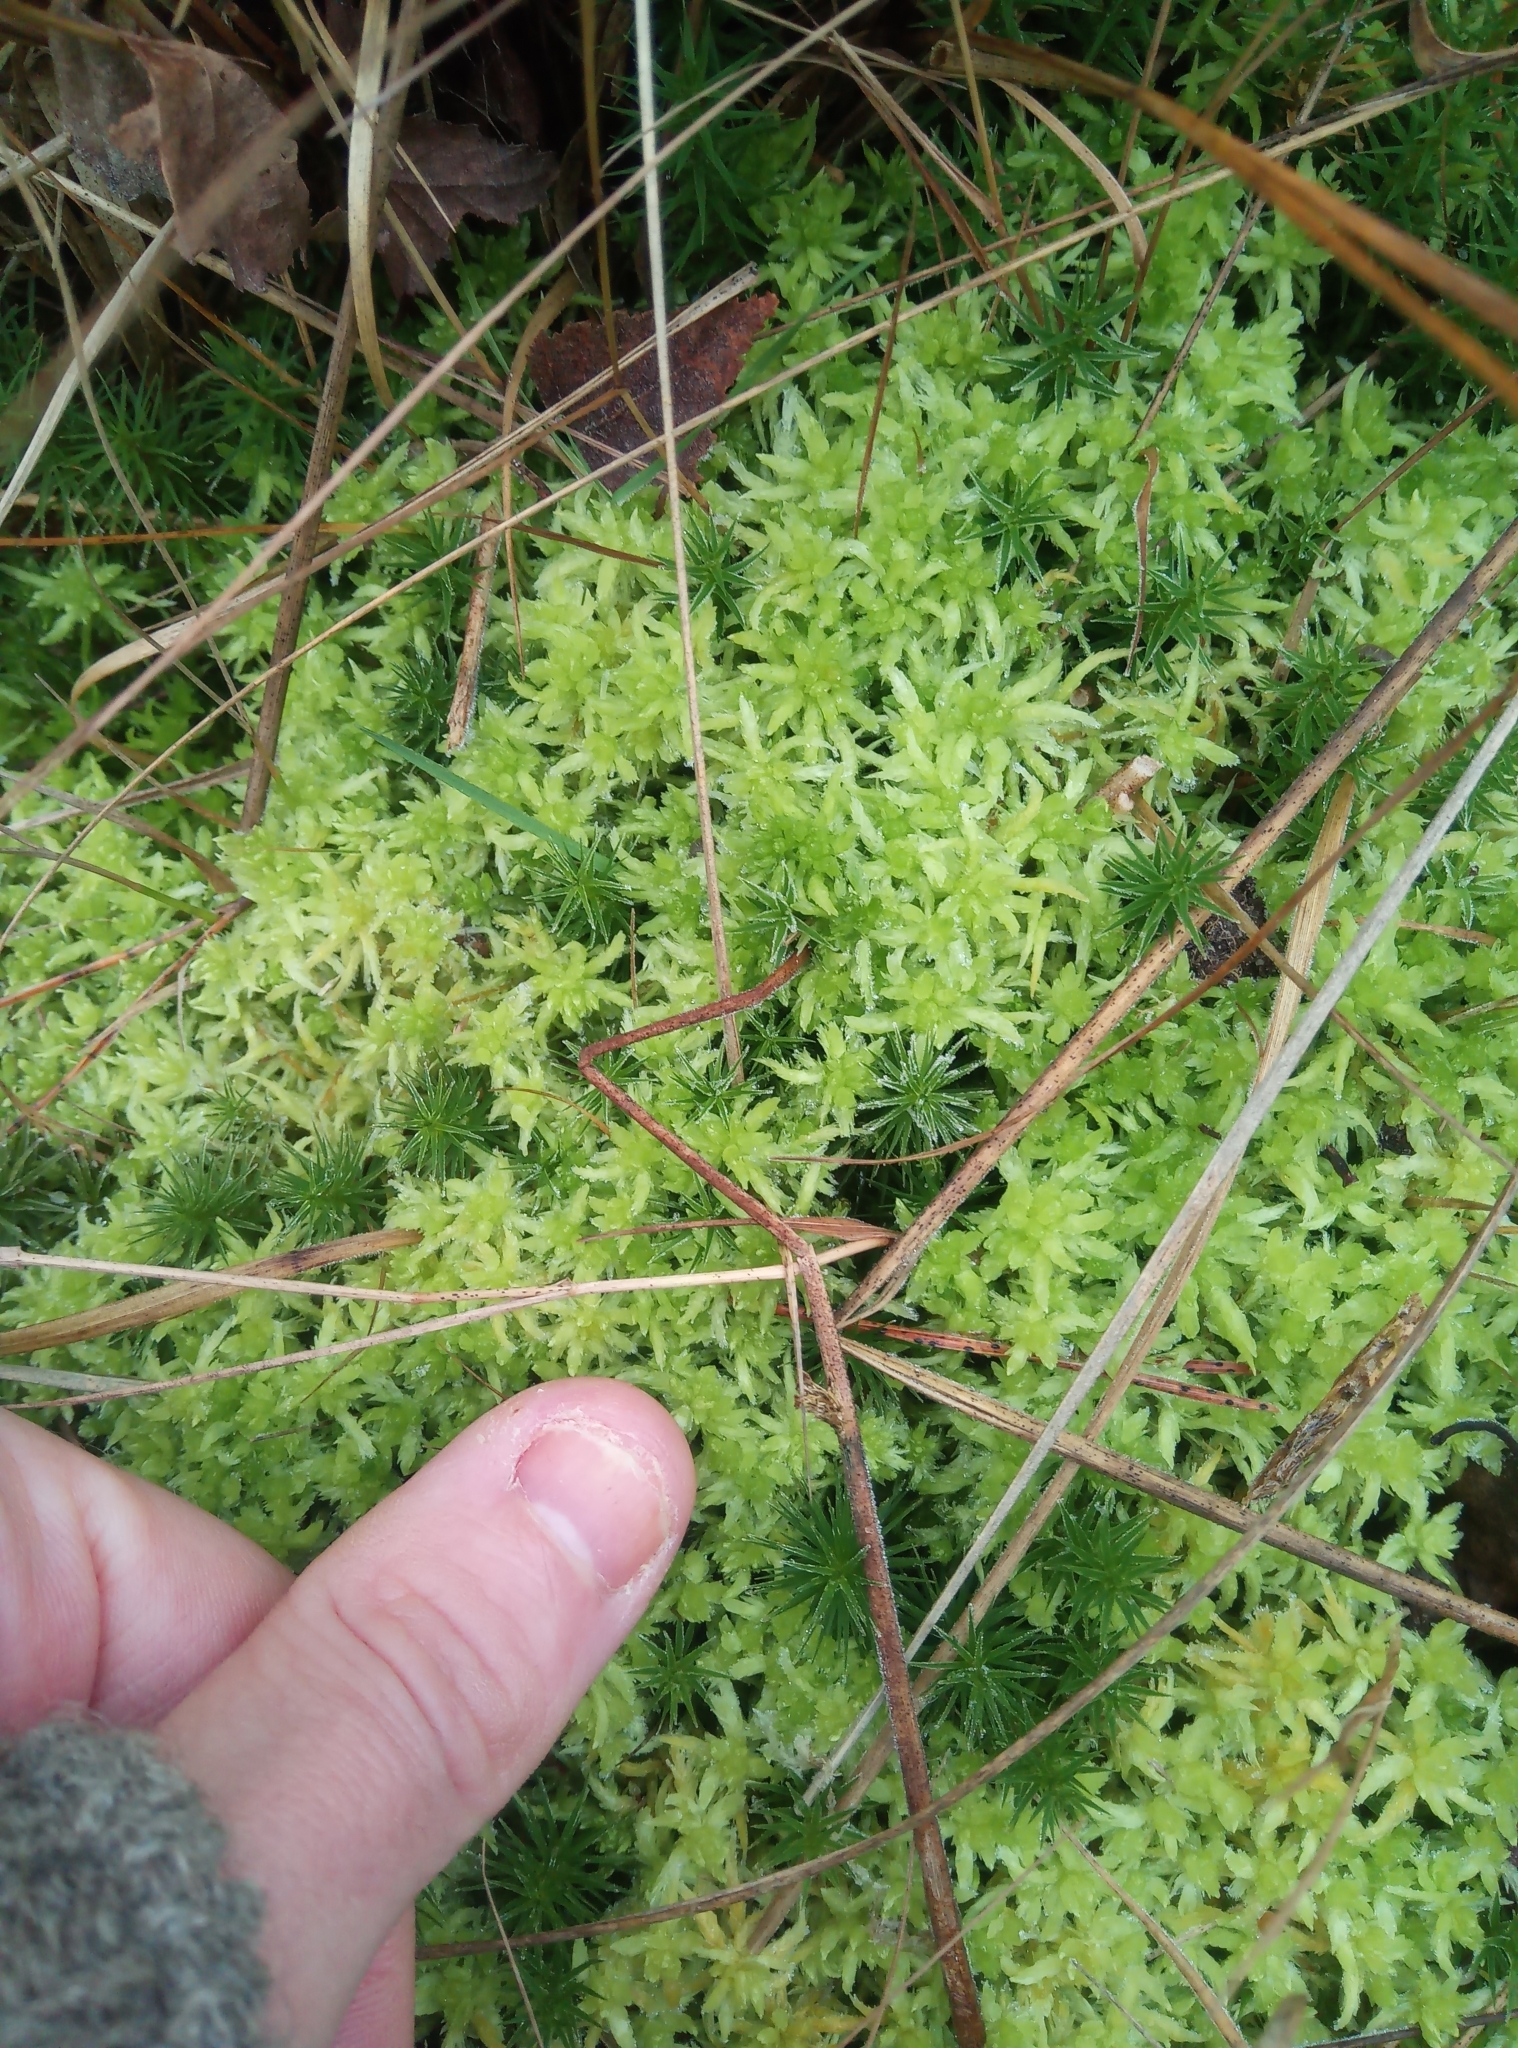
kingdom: Plantae
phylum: Bryophyta
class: Sphagnopsida
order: Sphagnales
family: Sphagnaceae
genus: Sphagnum
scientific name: Sphagnum inundatum
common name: Lesser cow-horn bog-moss
